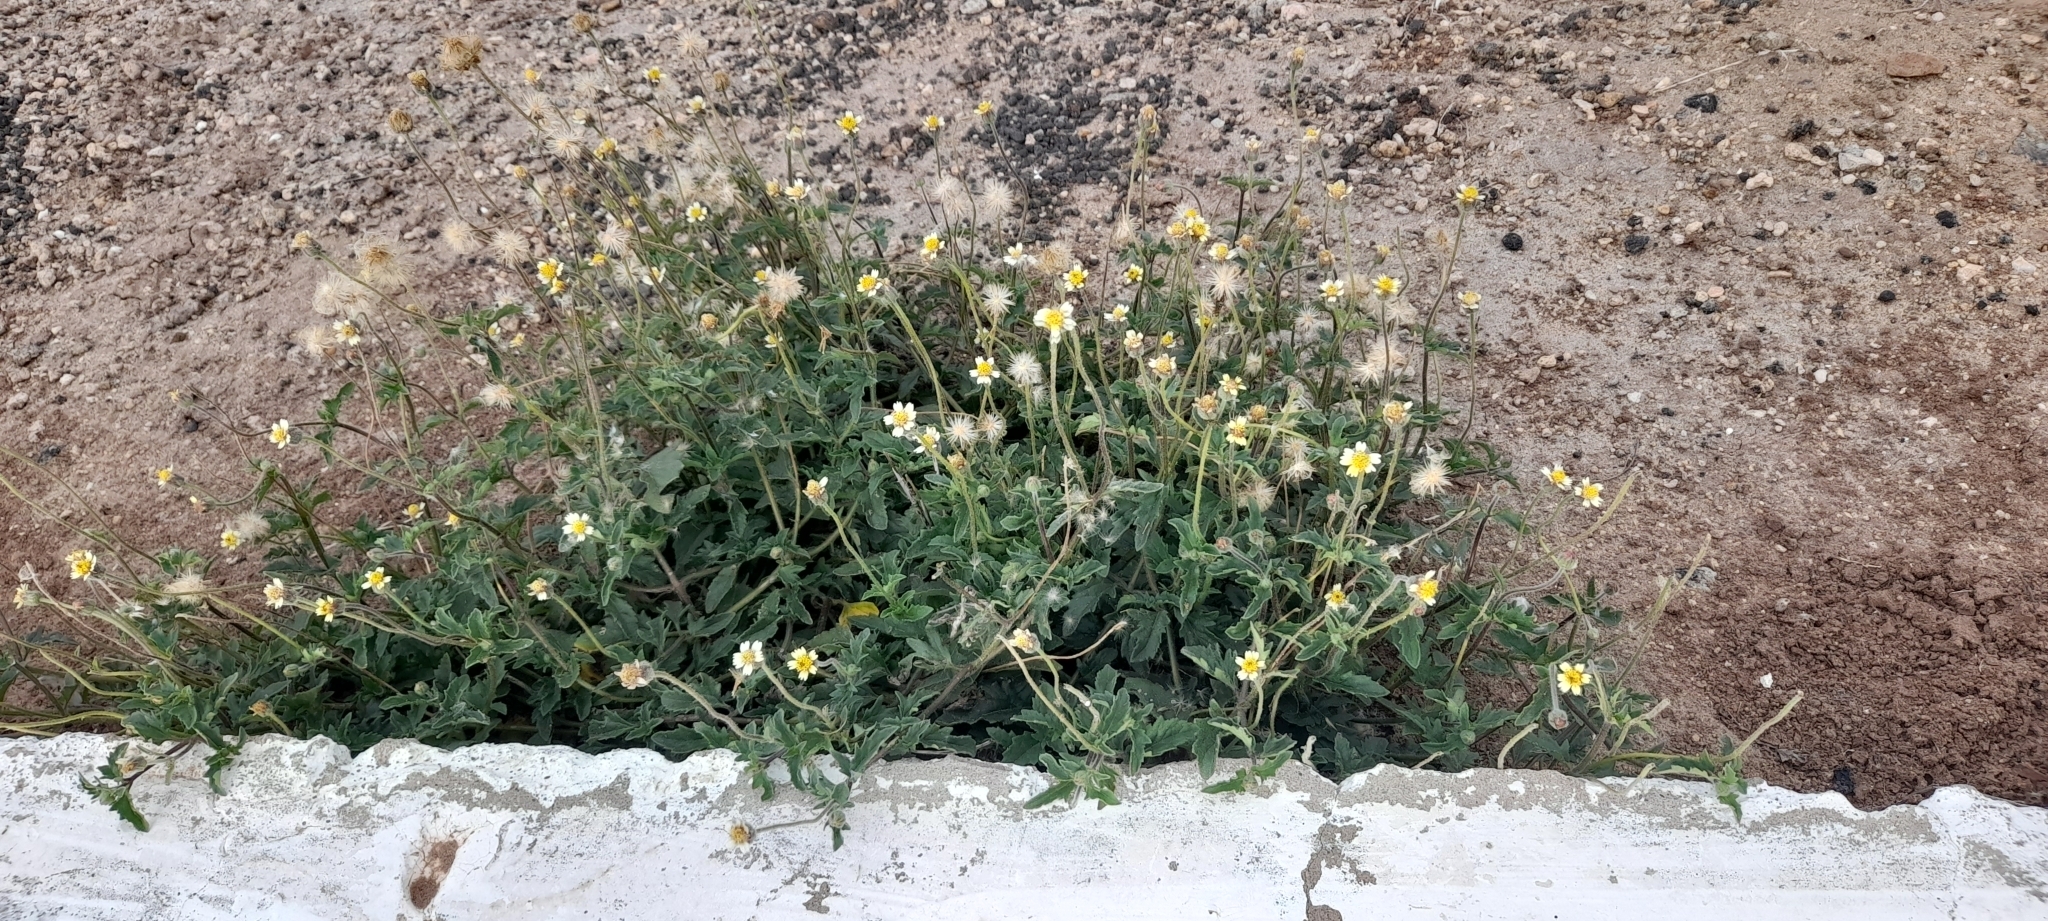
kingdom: Plantae
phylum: Tracheophyta
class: Magnoliopsida
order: Asterales
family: Asteraceae
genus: Tridax
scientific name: Tridax procumbens
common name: Coatbuttons
